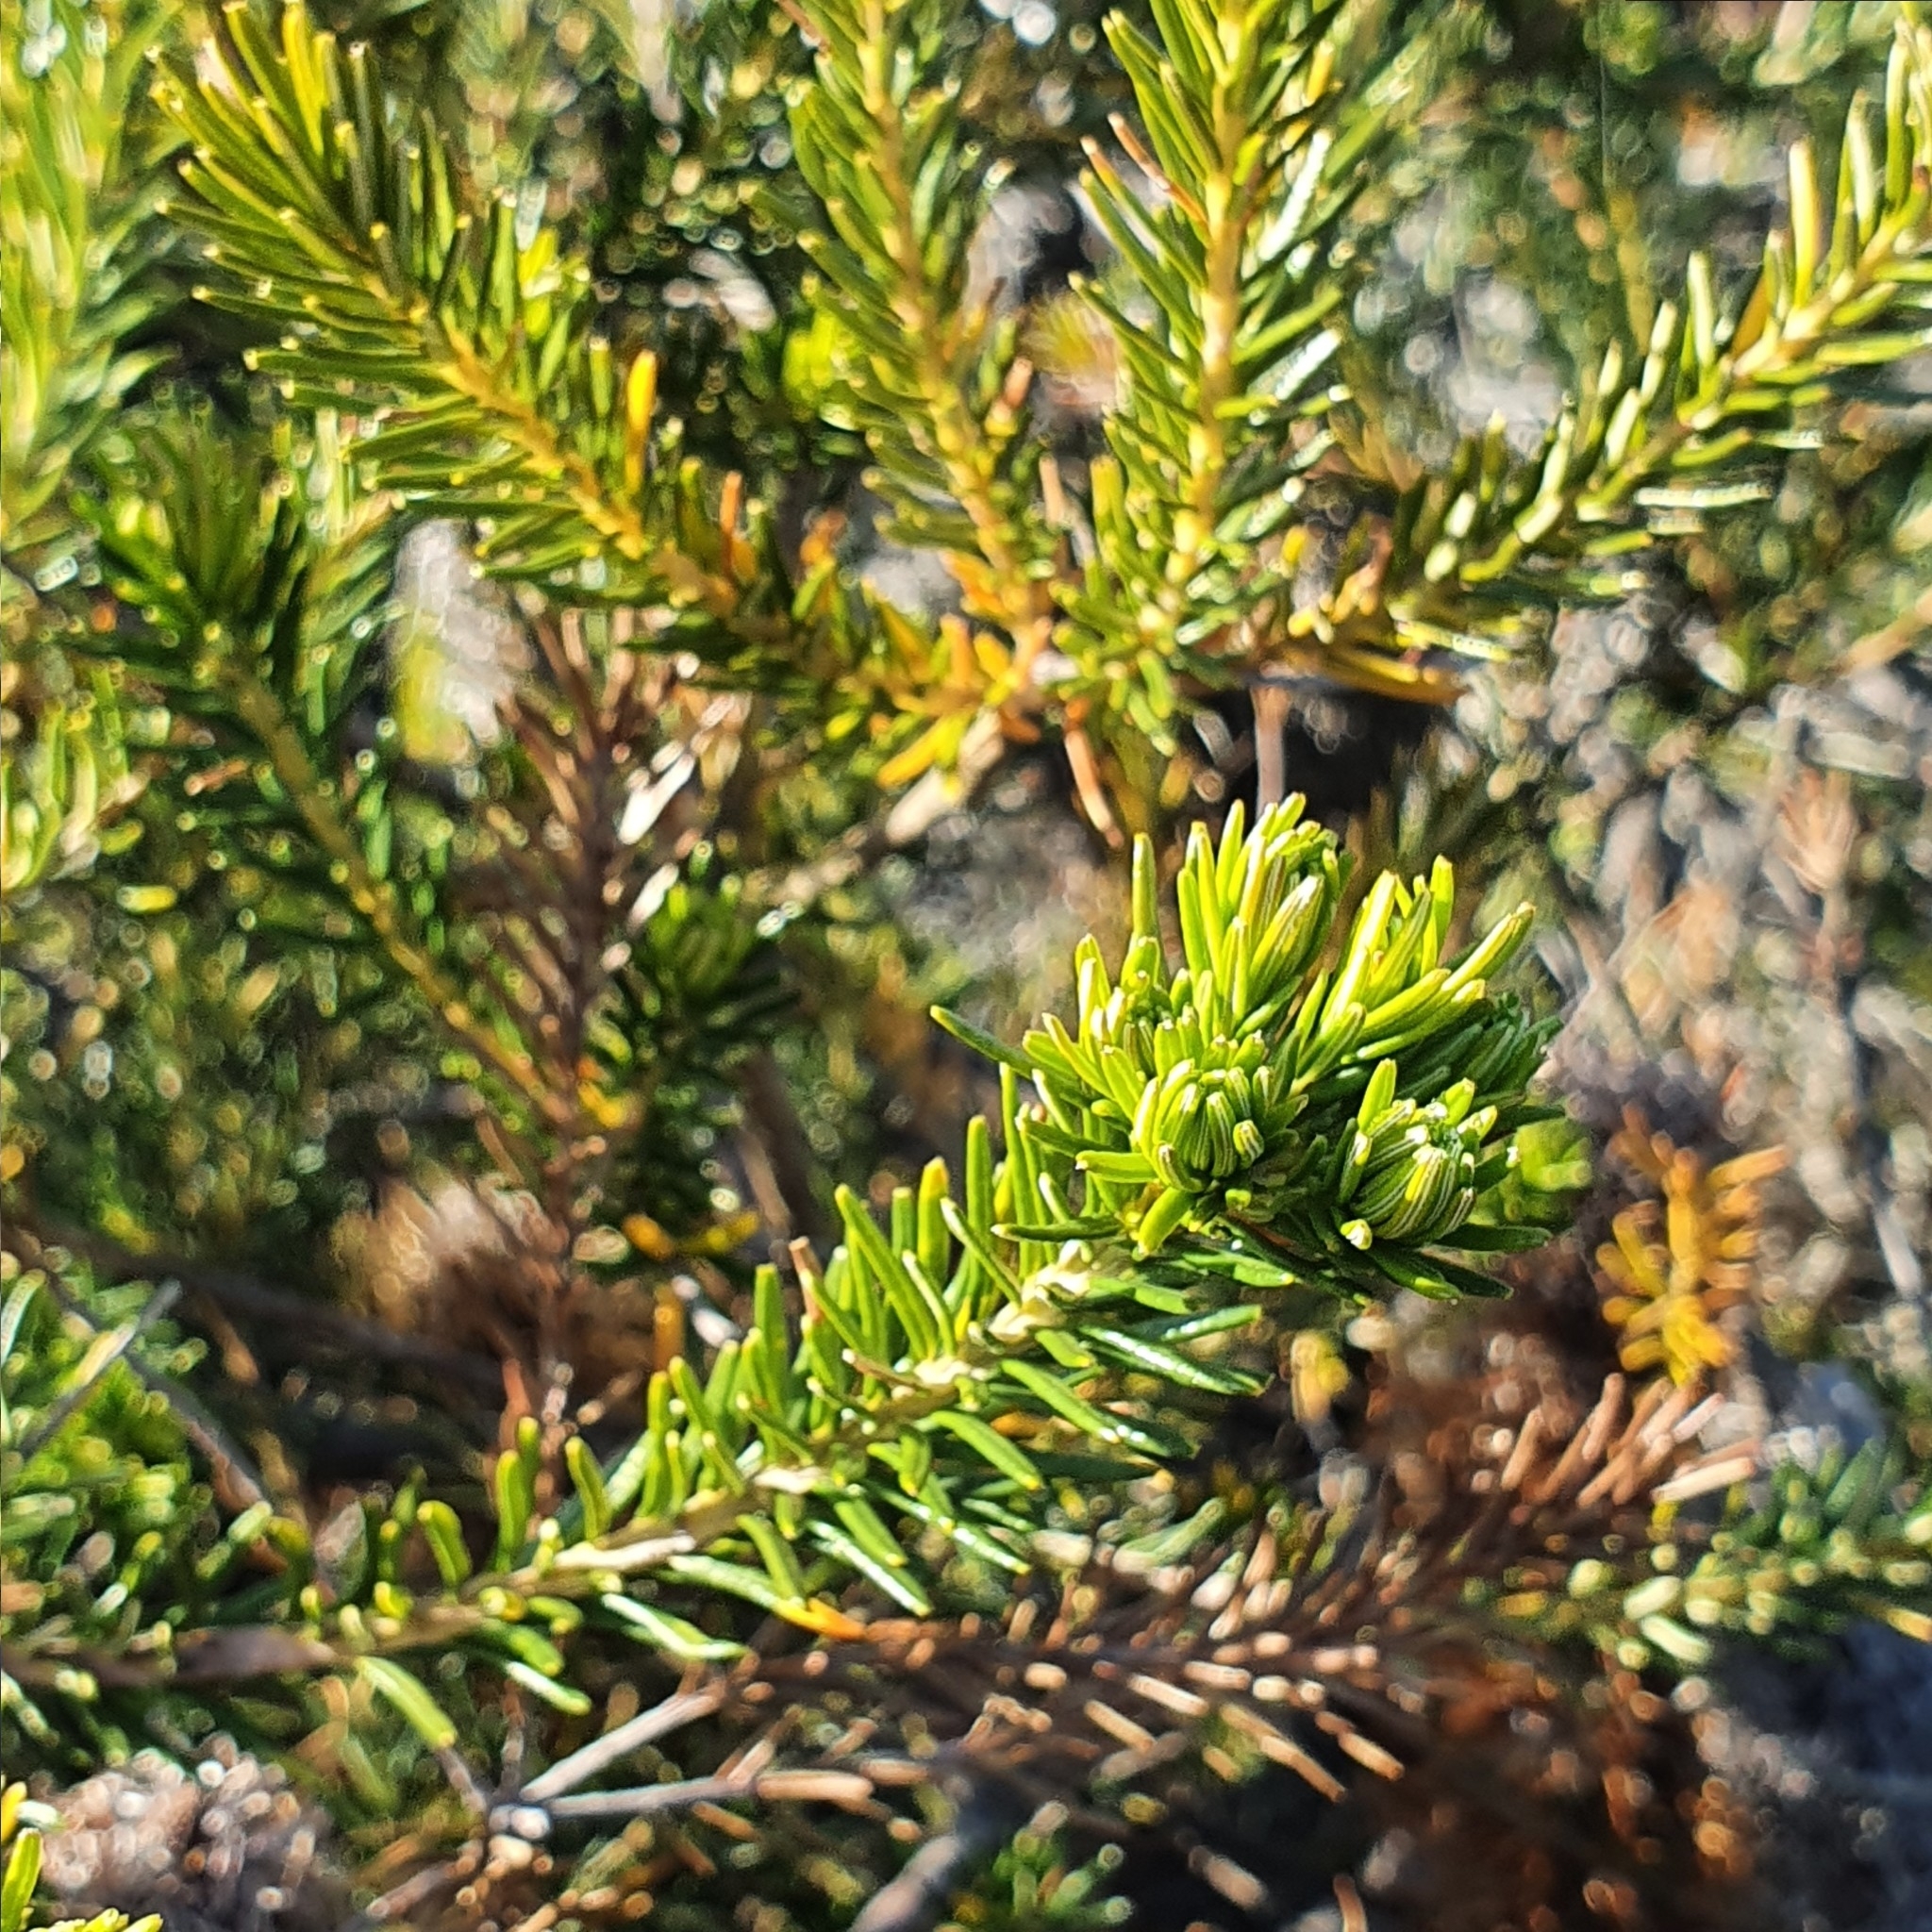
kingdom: Plantae
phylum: Tracheophyta
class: Magnoliopsida
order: Proteales
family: Proteaceae
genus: Banksia
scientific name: Banksia ericifolia
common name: Heath-leaf banksia
